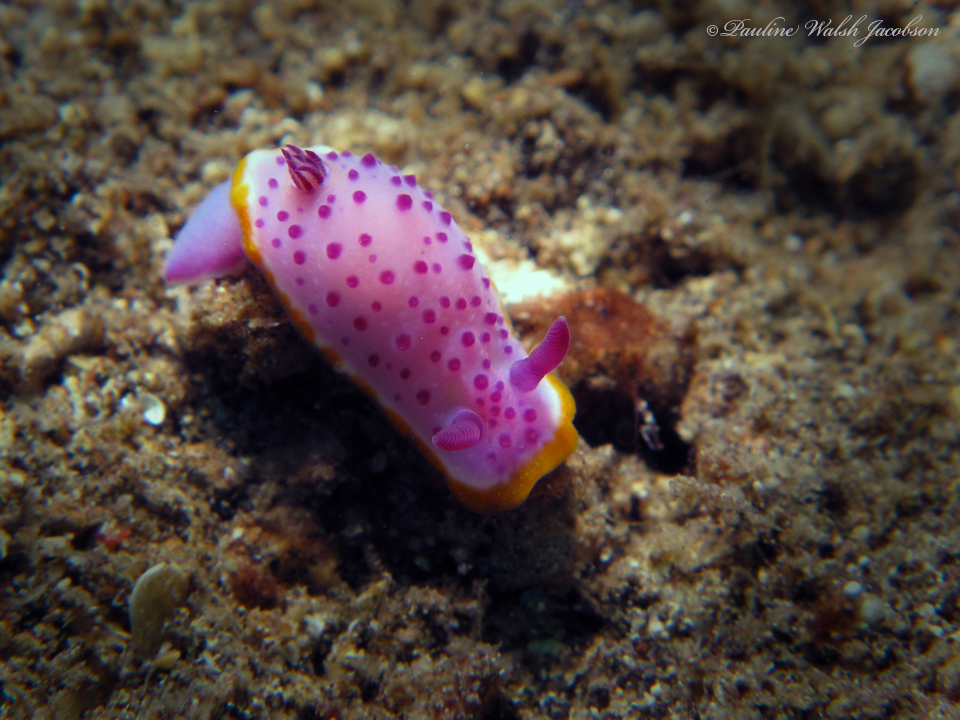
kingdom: Animalia
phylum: Mollusca
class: Gastropoda
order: Nudibranchia
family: Chromodorididae
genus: Mexichromis
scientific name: Mexichromis mariei
